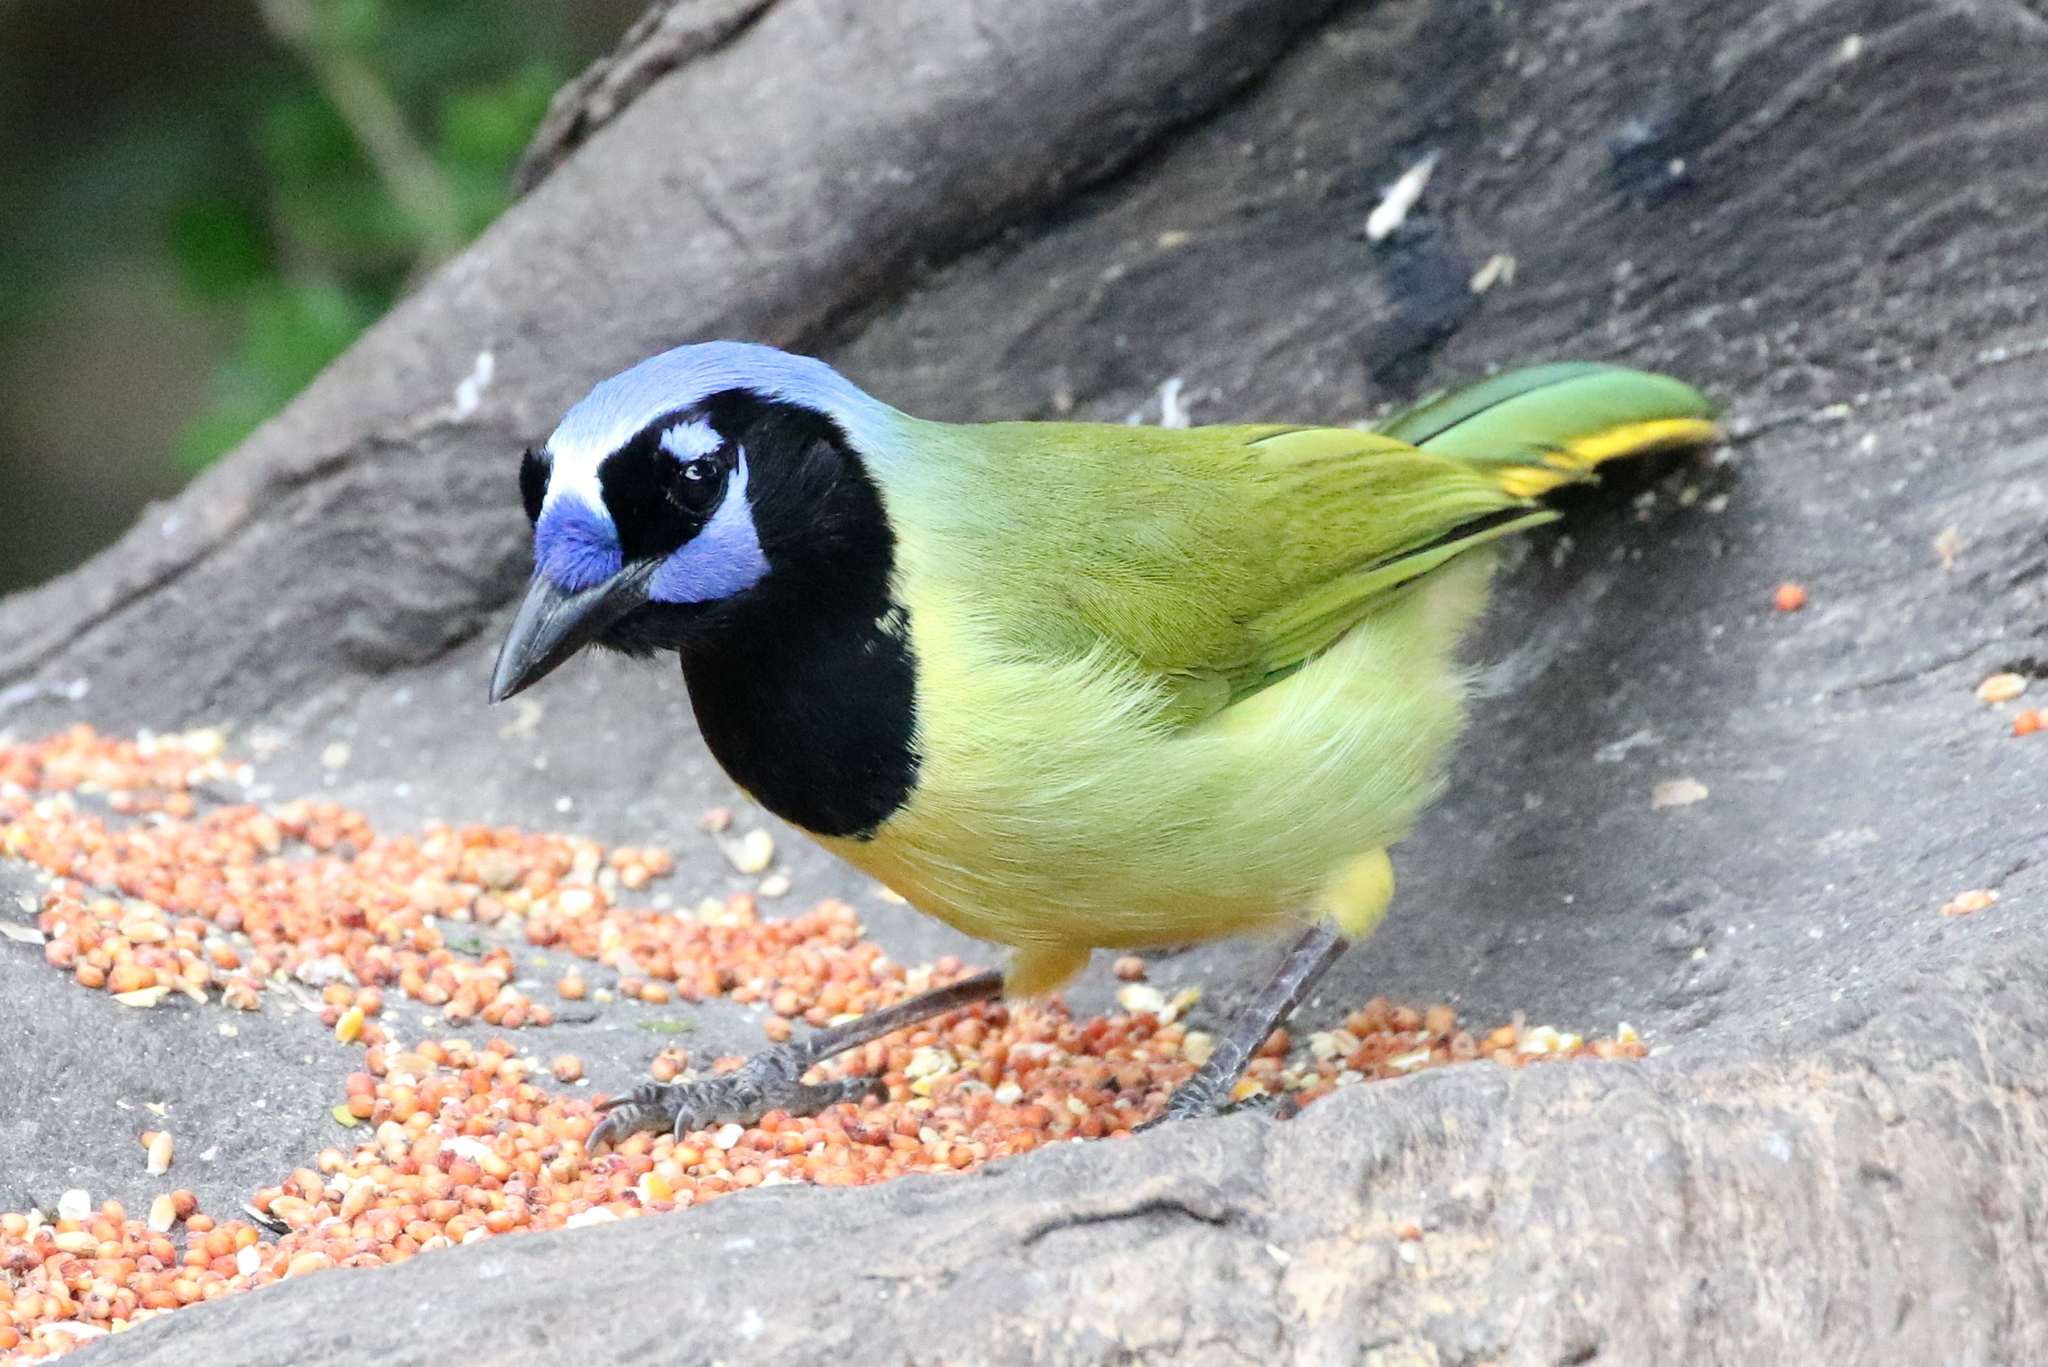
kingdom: Animalia
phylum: Chordata
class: Aves
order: Passeriformes
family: Corvidae
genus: Cyanocorax
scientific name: Cyanocorax yncas
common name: Green jay
